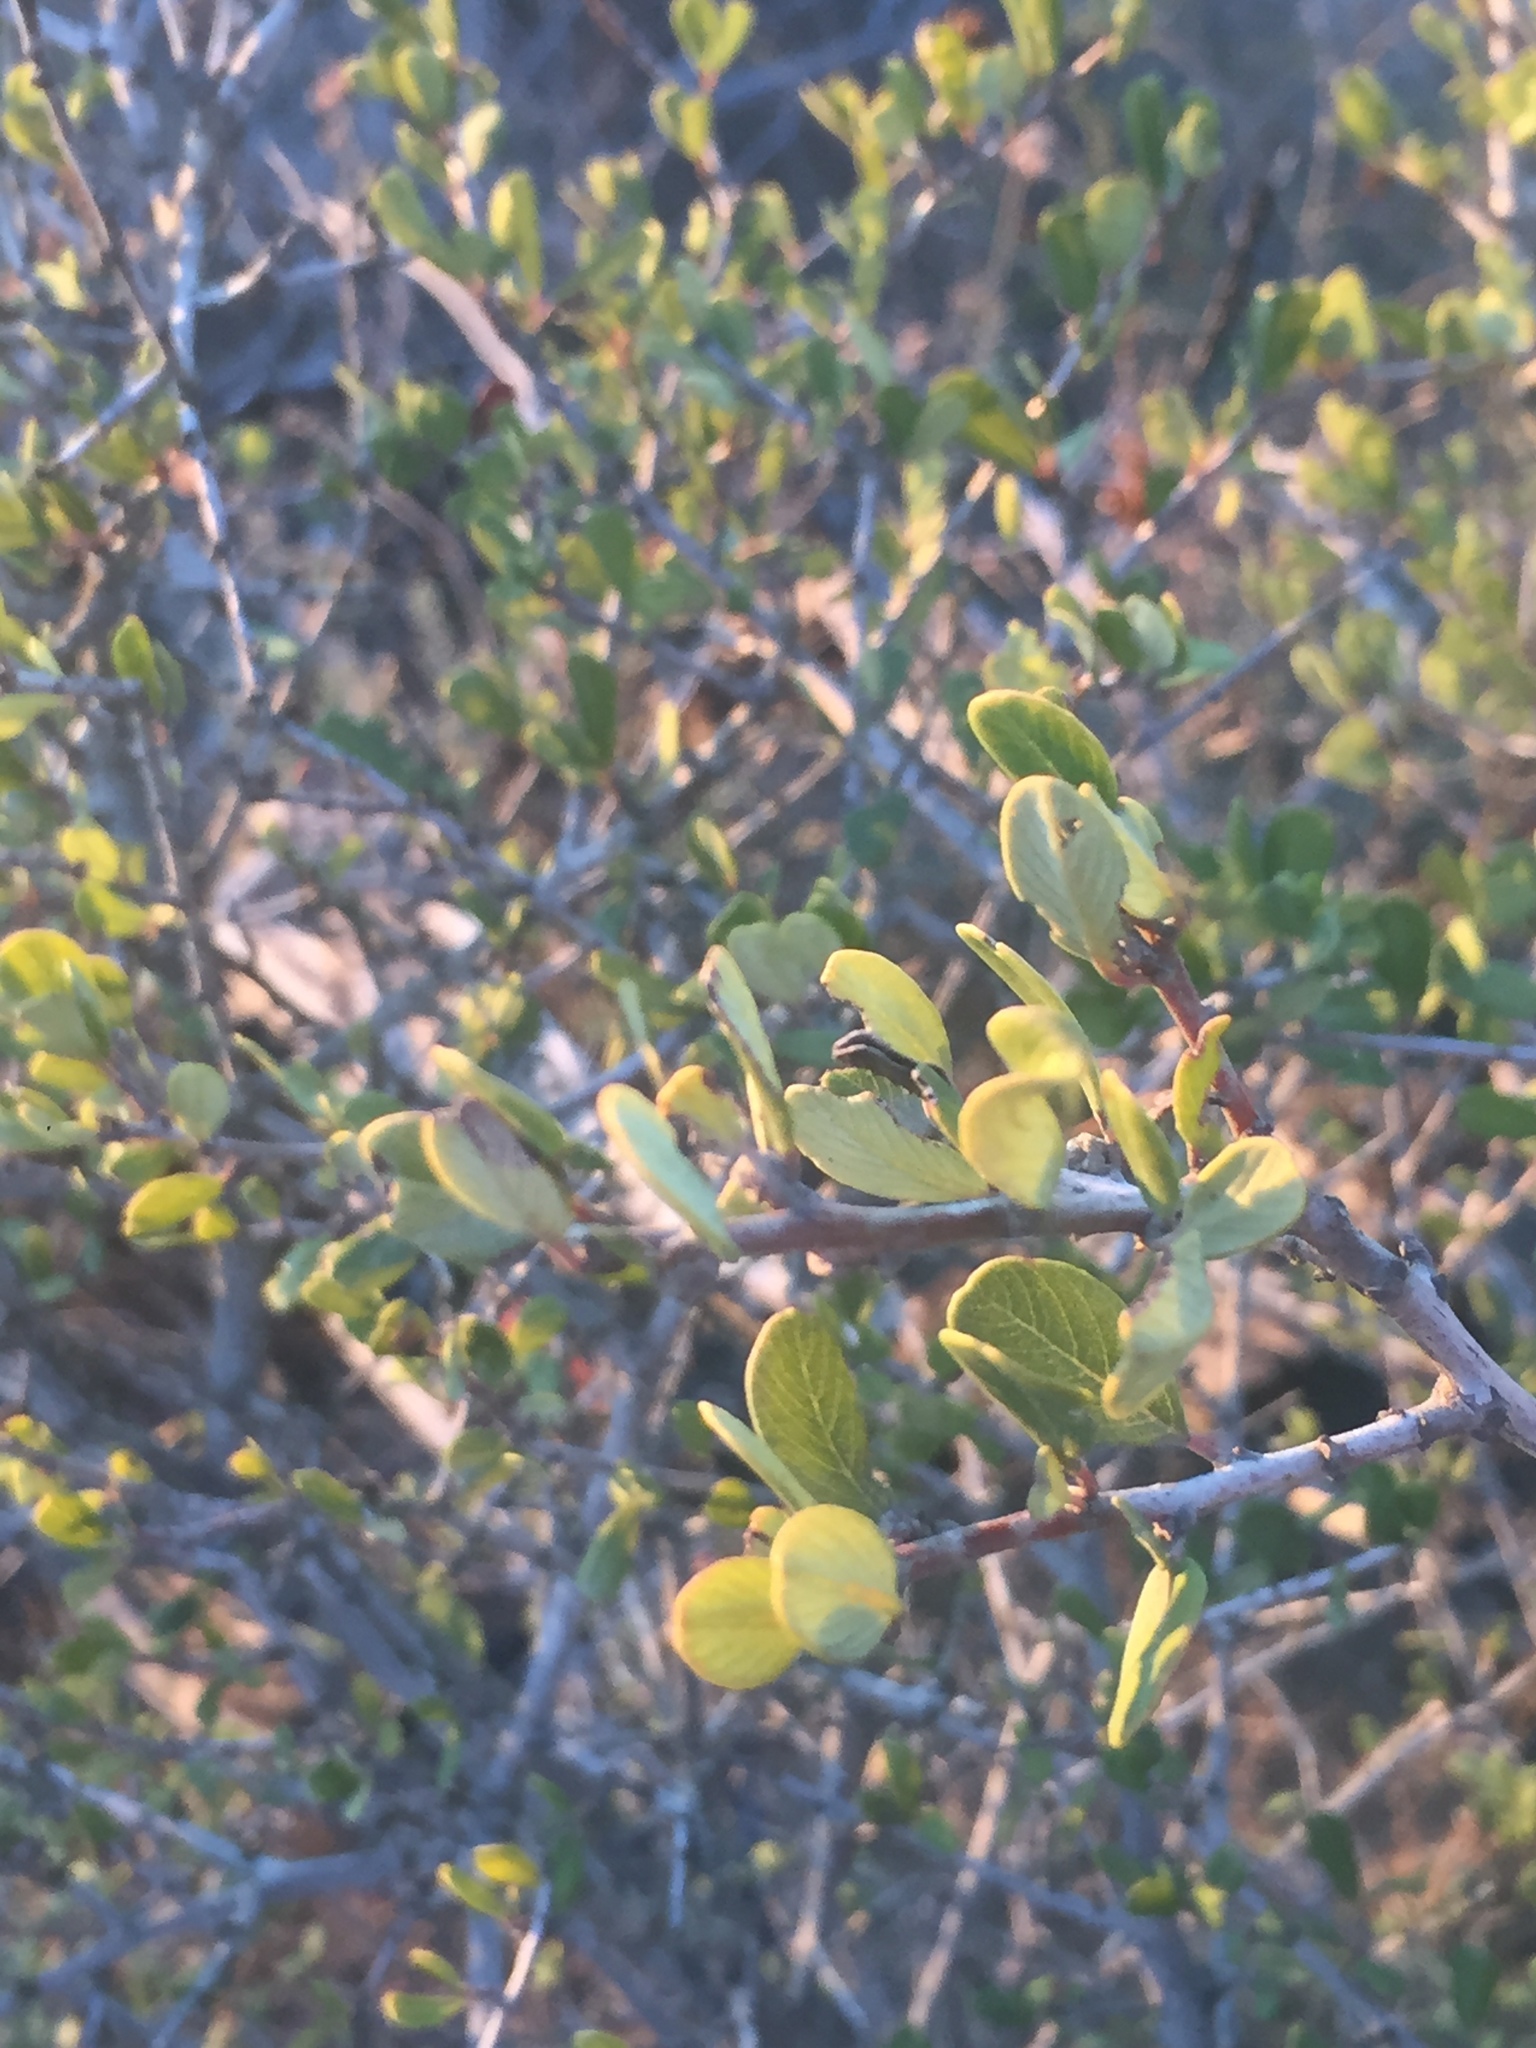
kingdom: Plantae
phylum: Tracheophyta
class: Magnoliopsida
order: Rosales
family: Rhamnaceae
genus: Ceanothus
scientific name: Ceanothus megacarpus
